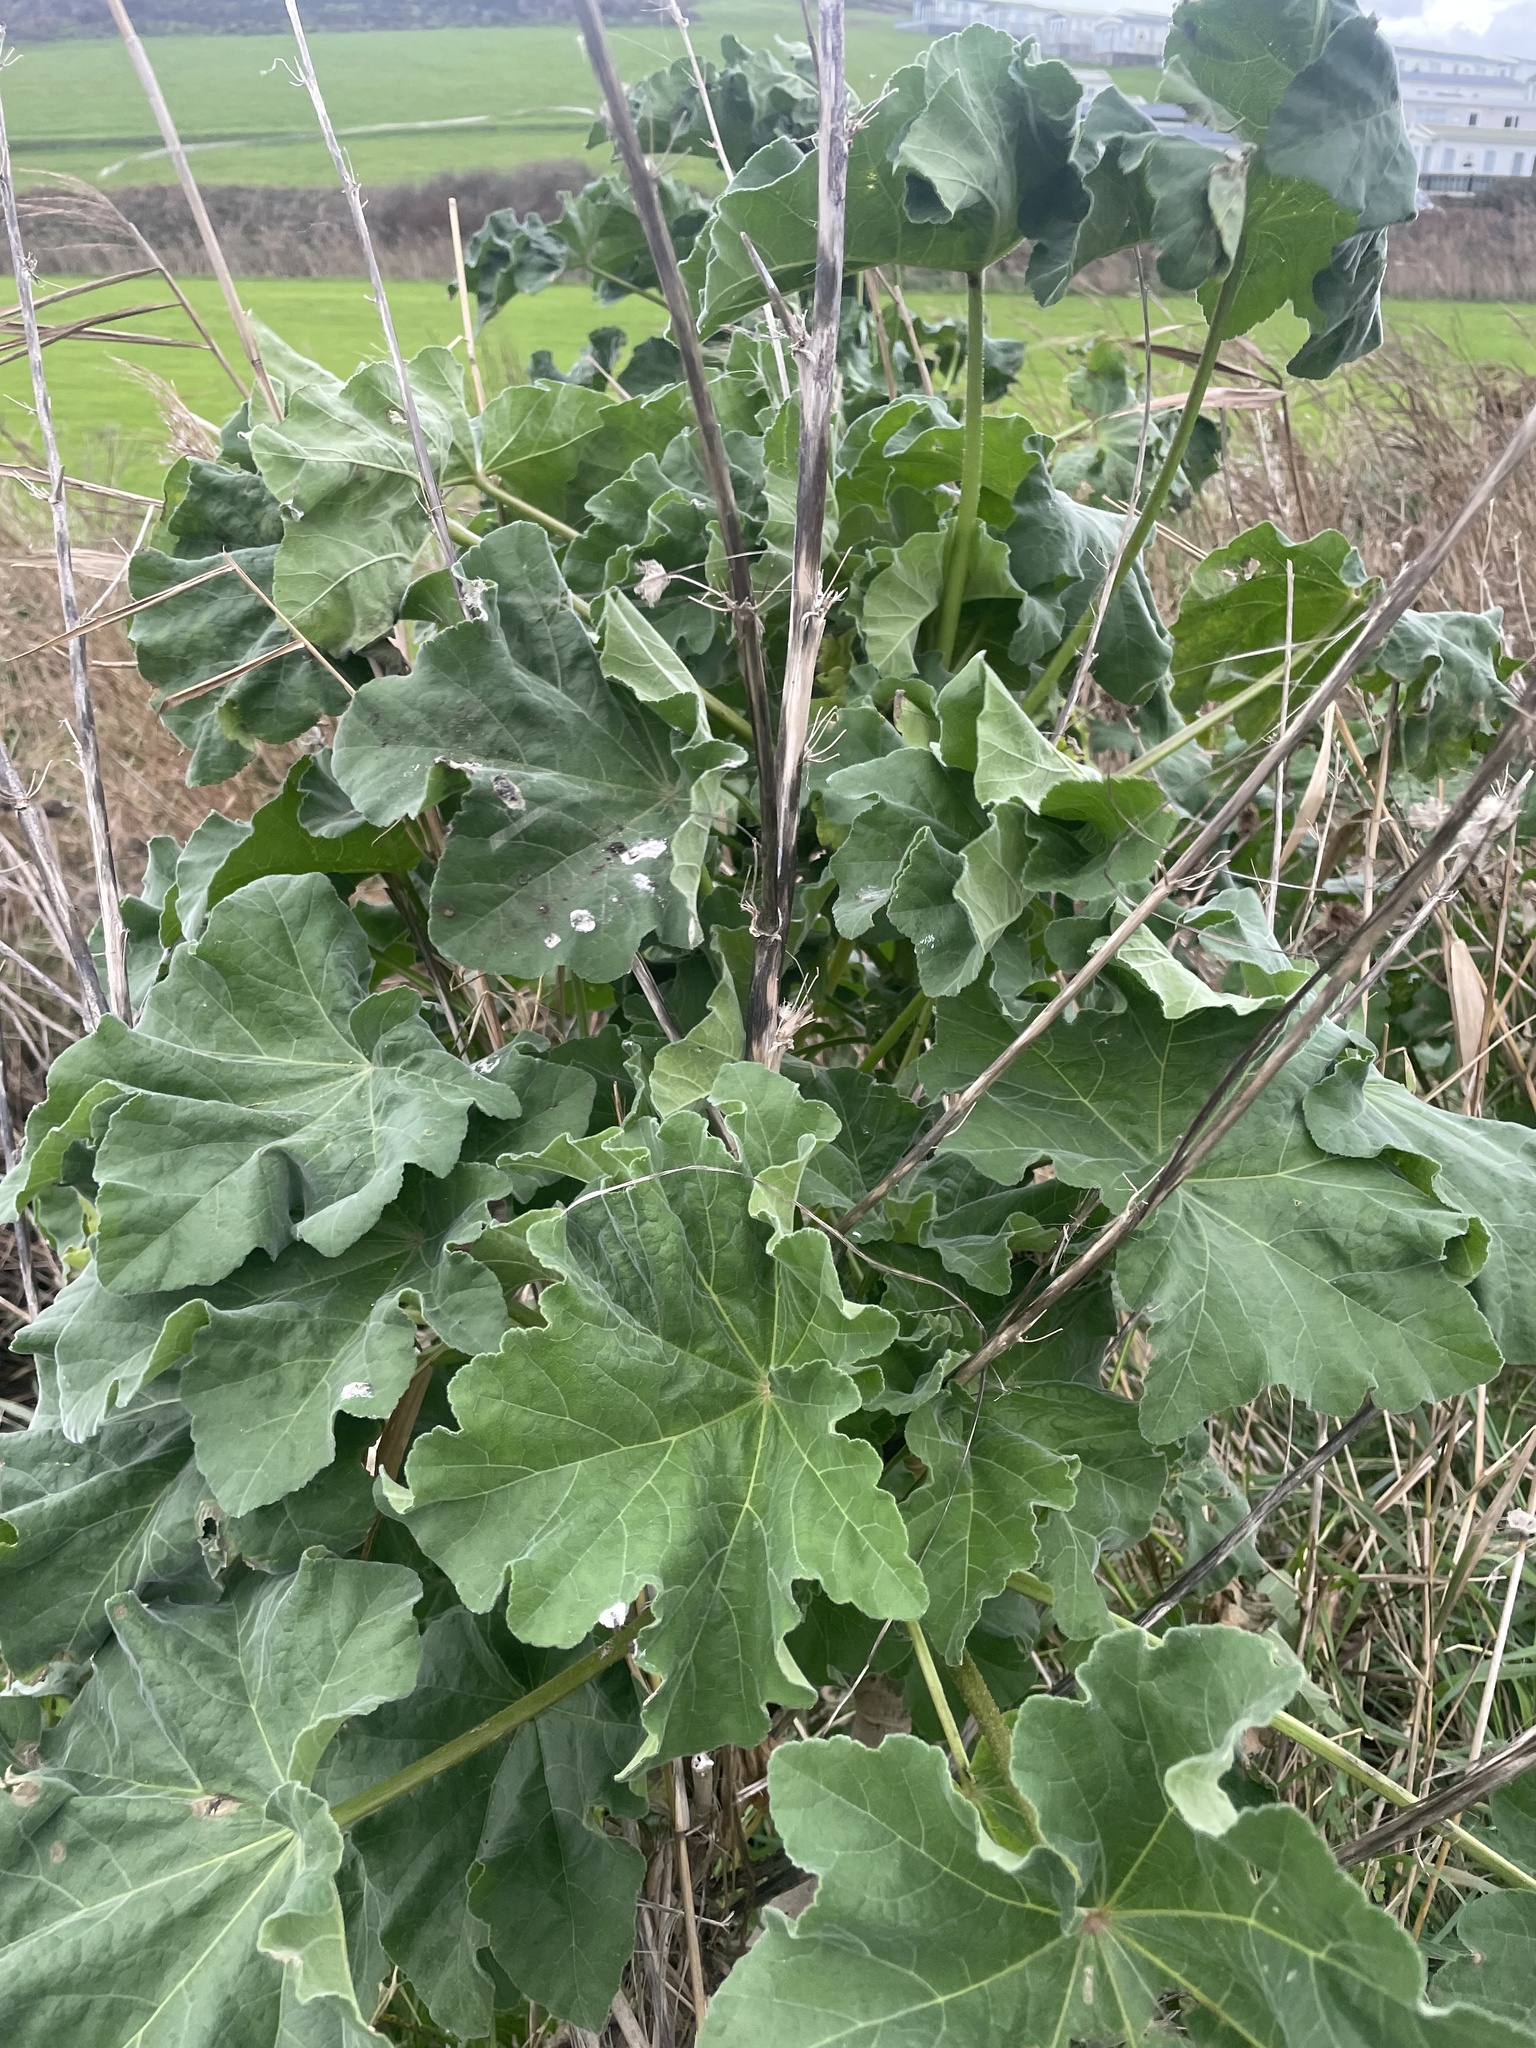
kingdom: Plantae
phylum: Tracheophyta
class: Magnoliopsida
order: Malvales
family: Malvaceae
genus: Malva
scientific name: Malva arborea
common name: Tree mallow
